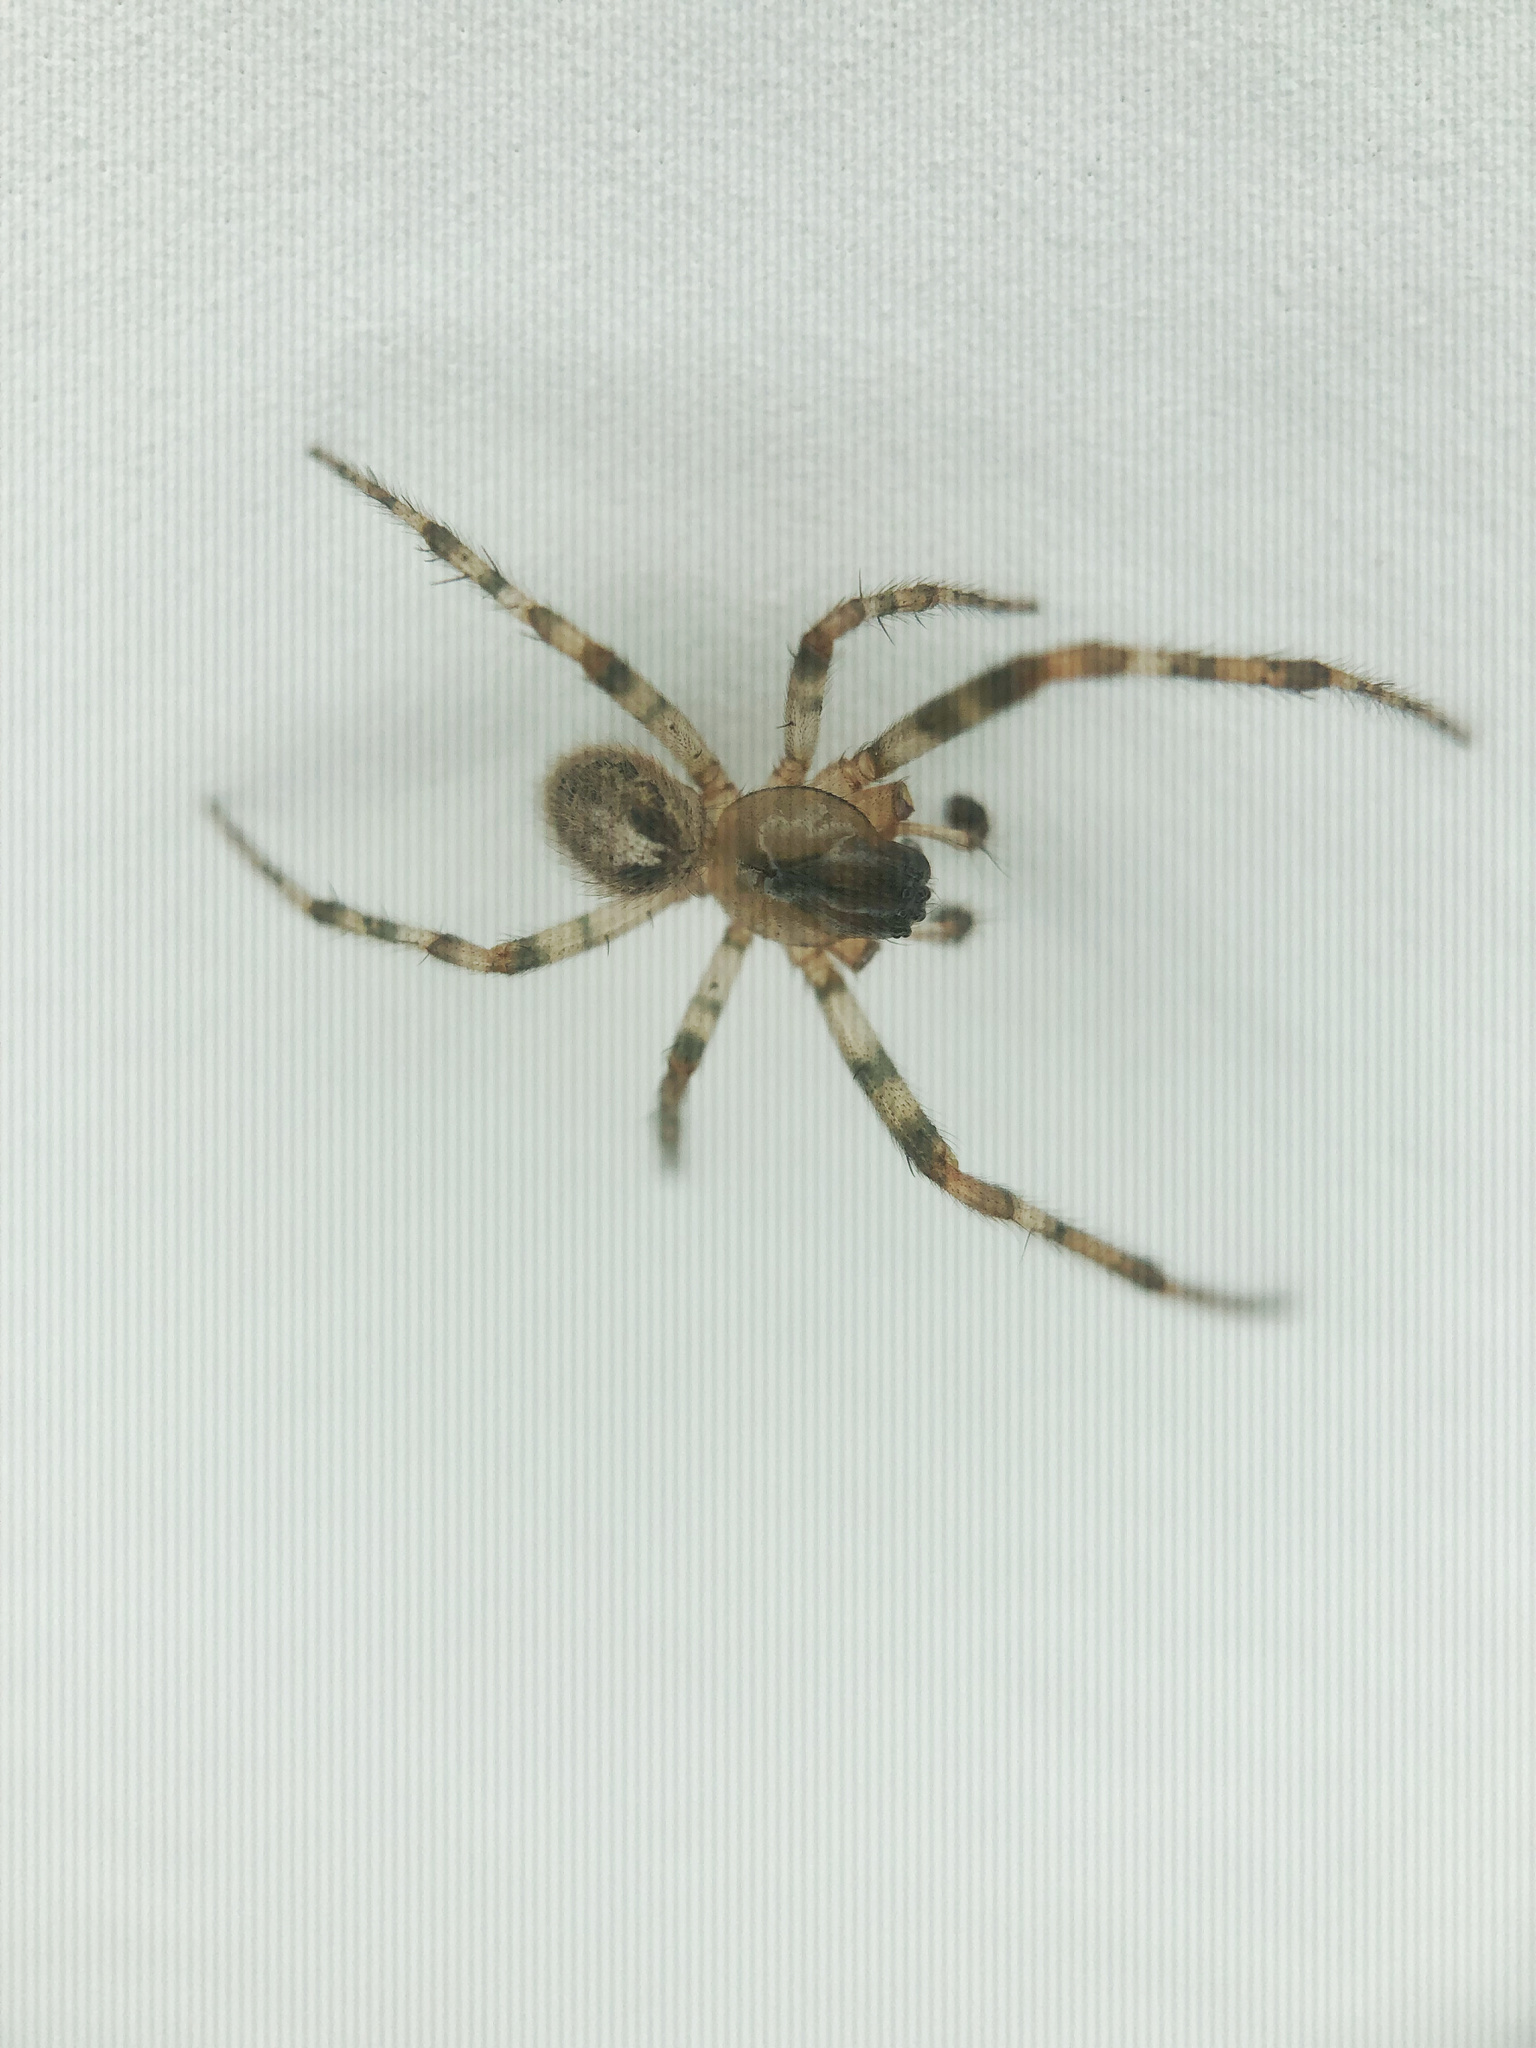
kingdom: Animalia
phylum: Arthropoda
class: Arachnida
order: Araneae
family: Araneidae
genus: Zygiella
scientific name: Zygiella x-notata
